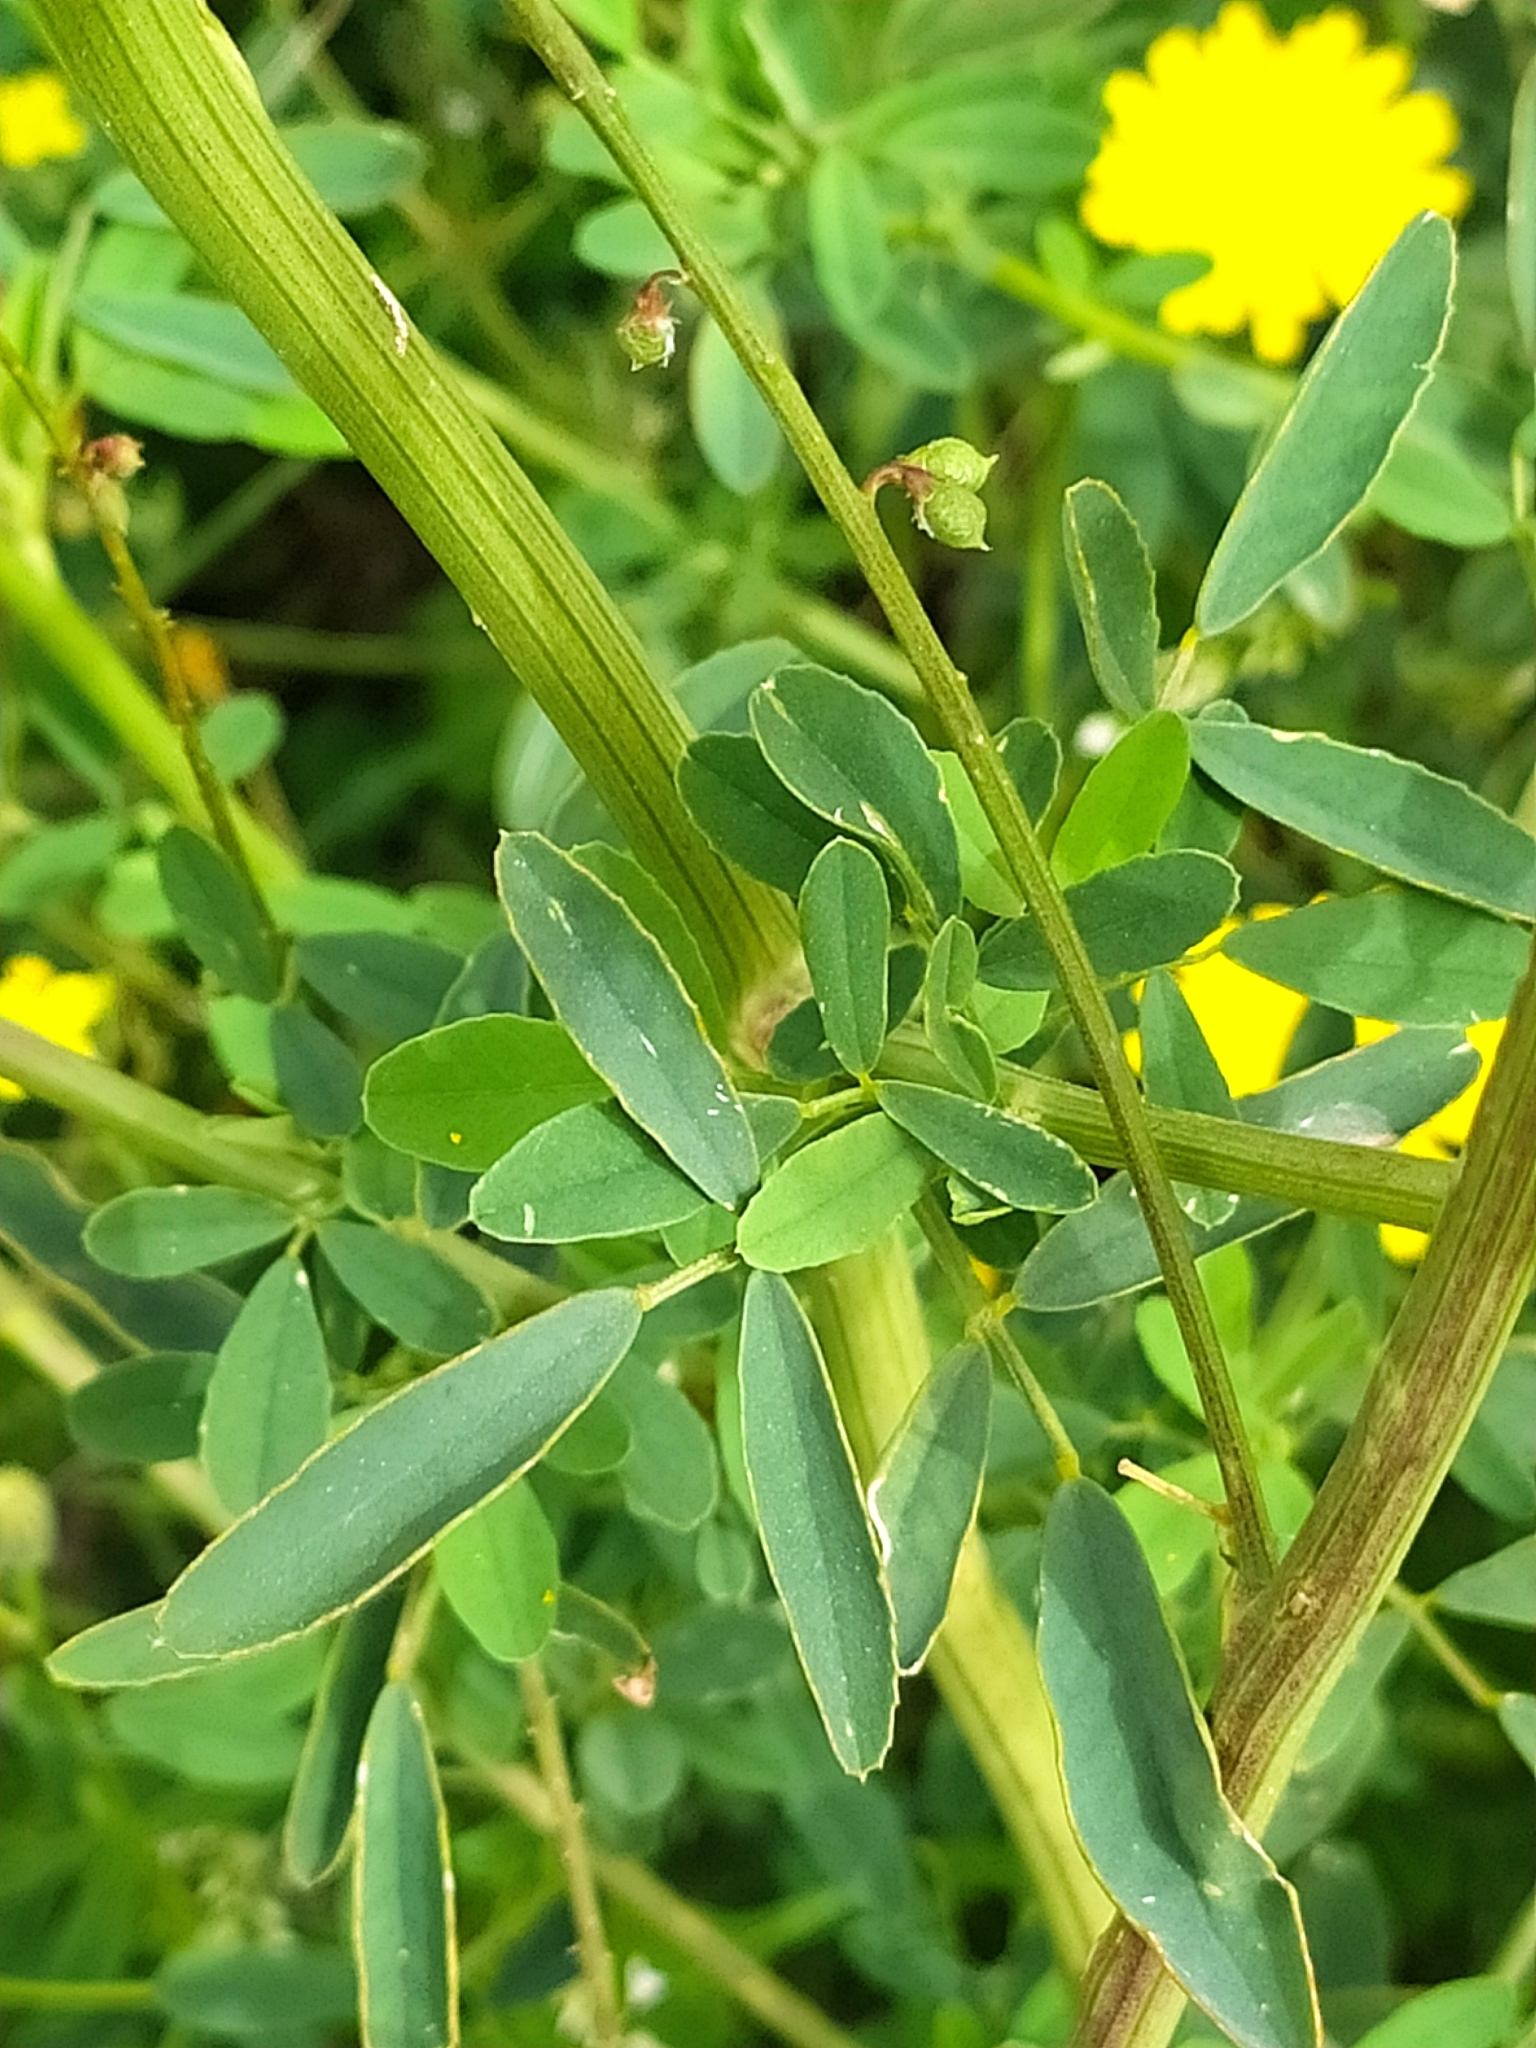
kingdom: Plantae
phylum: Tracheophyta
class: Magnoliopsida
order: Fabales
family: Fabaceae
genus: Melilotus
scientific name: Melilotus albus
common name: White melilot
